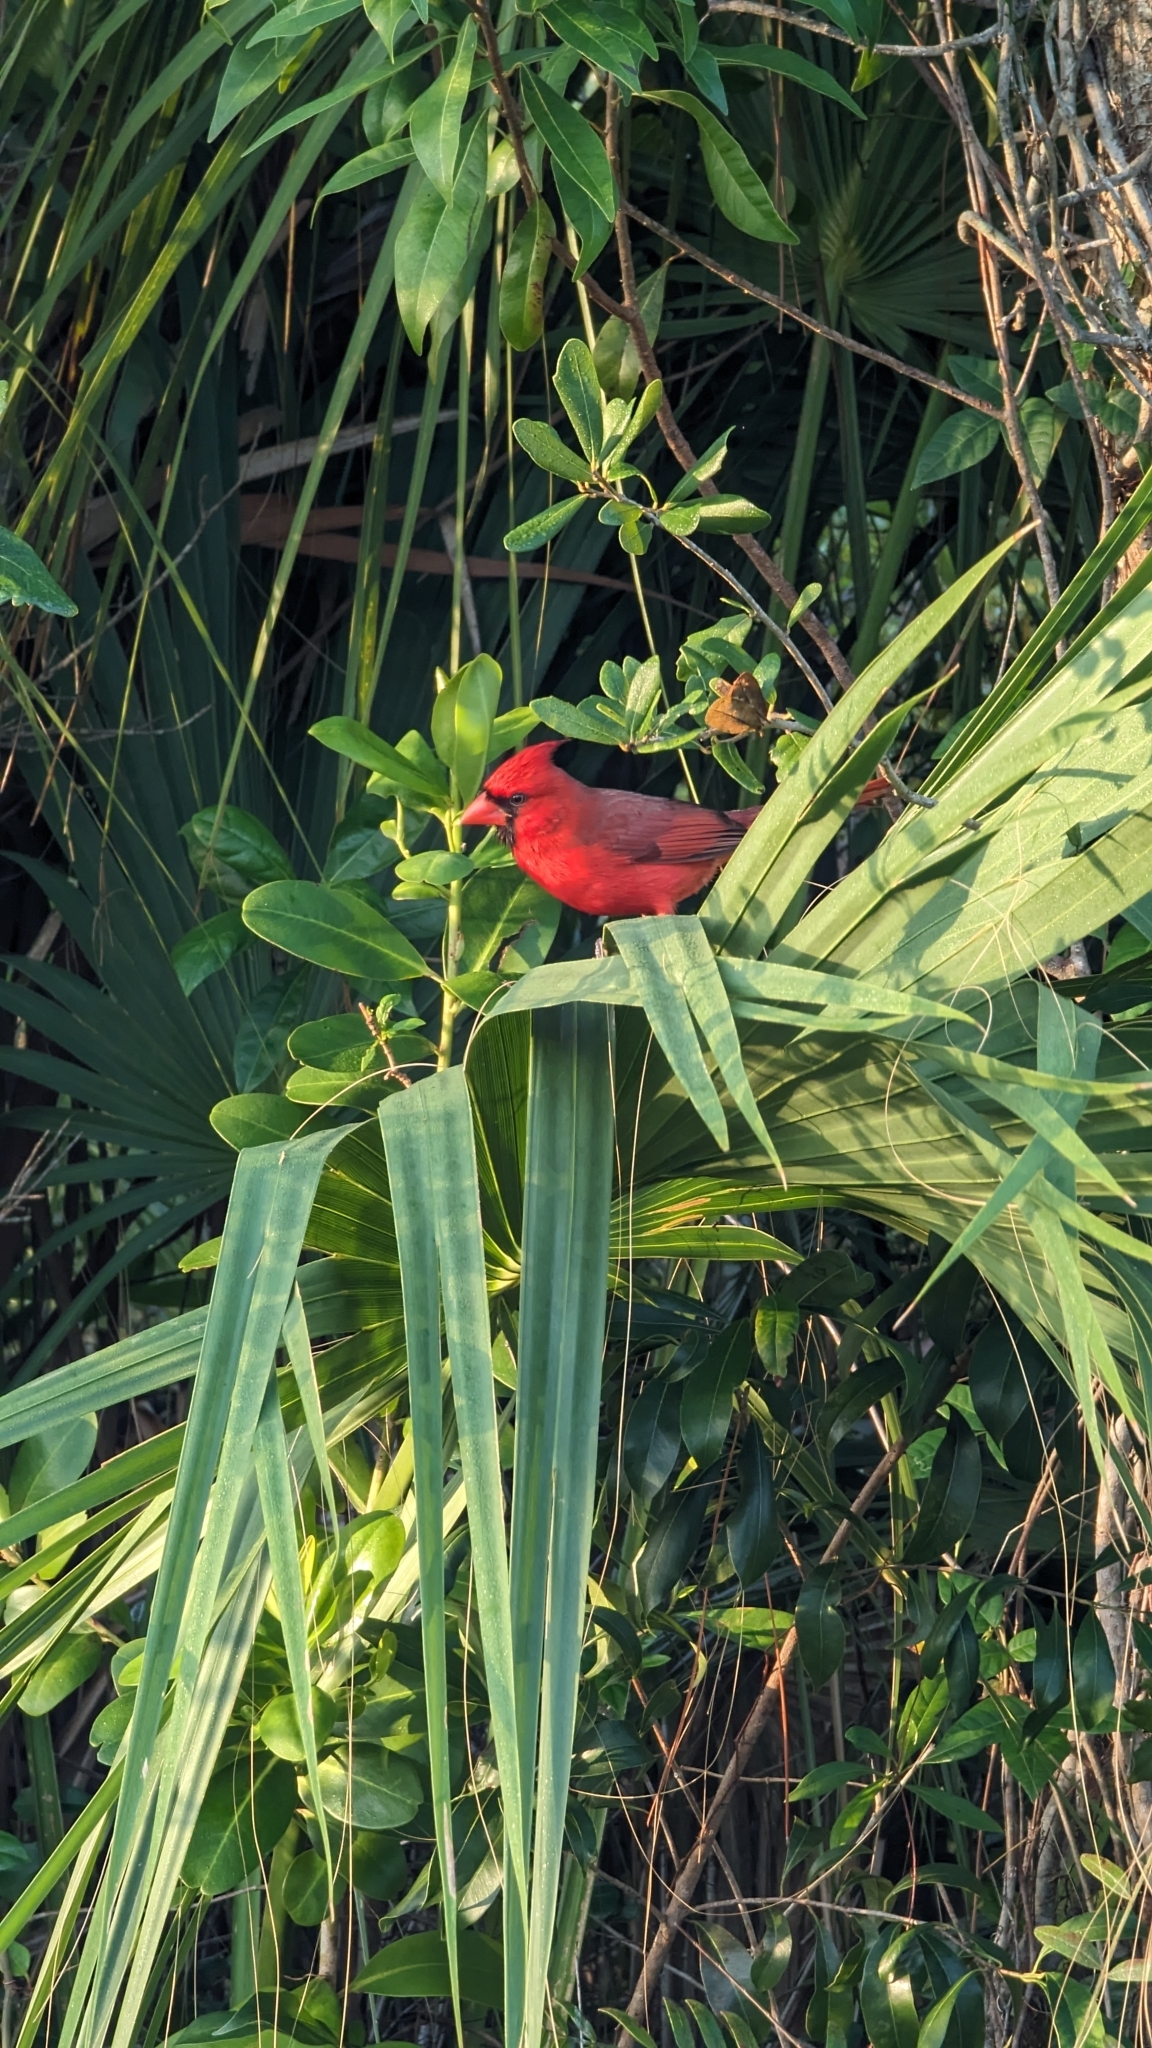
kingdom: Animalia
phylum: Chordata
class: Aves
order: Passeriformes
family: Cardinalidae
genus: Cardinalis
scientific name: Cardinalis cardinalis
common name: Northern cardinal
